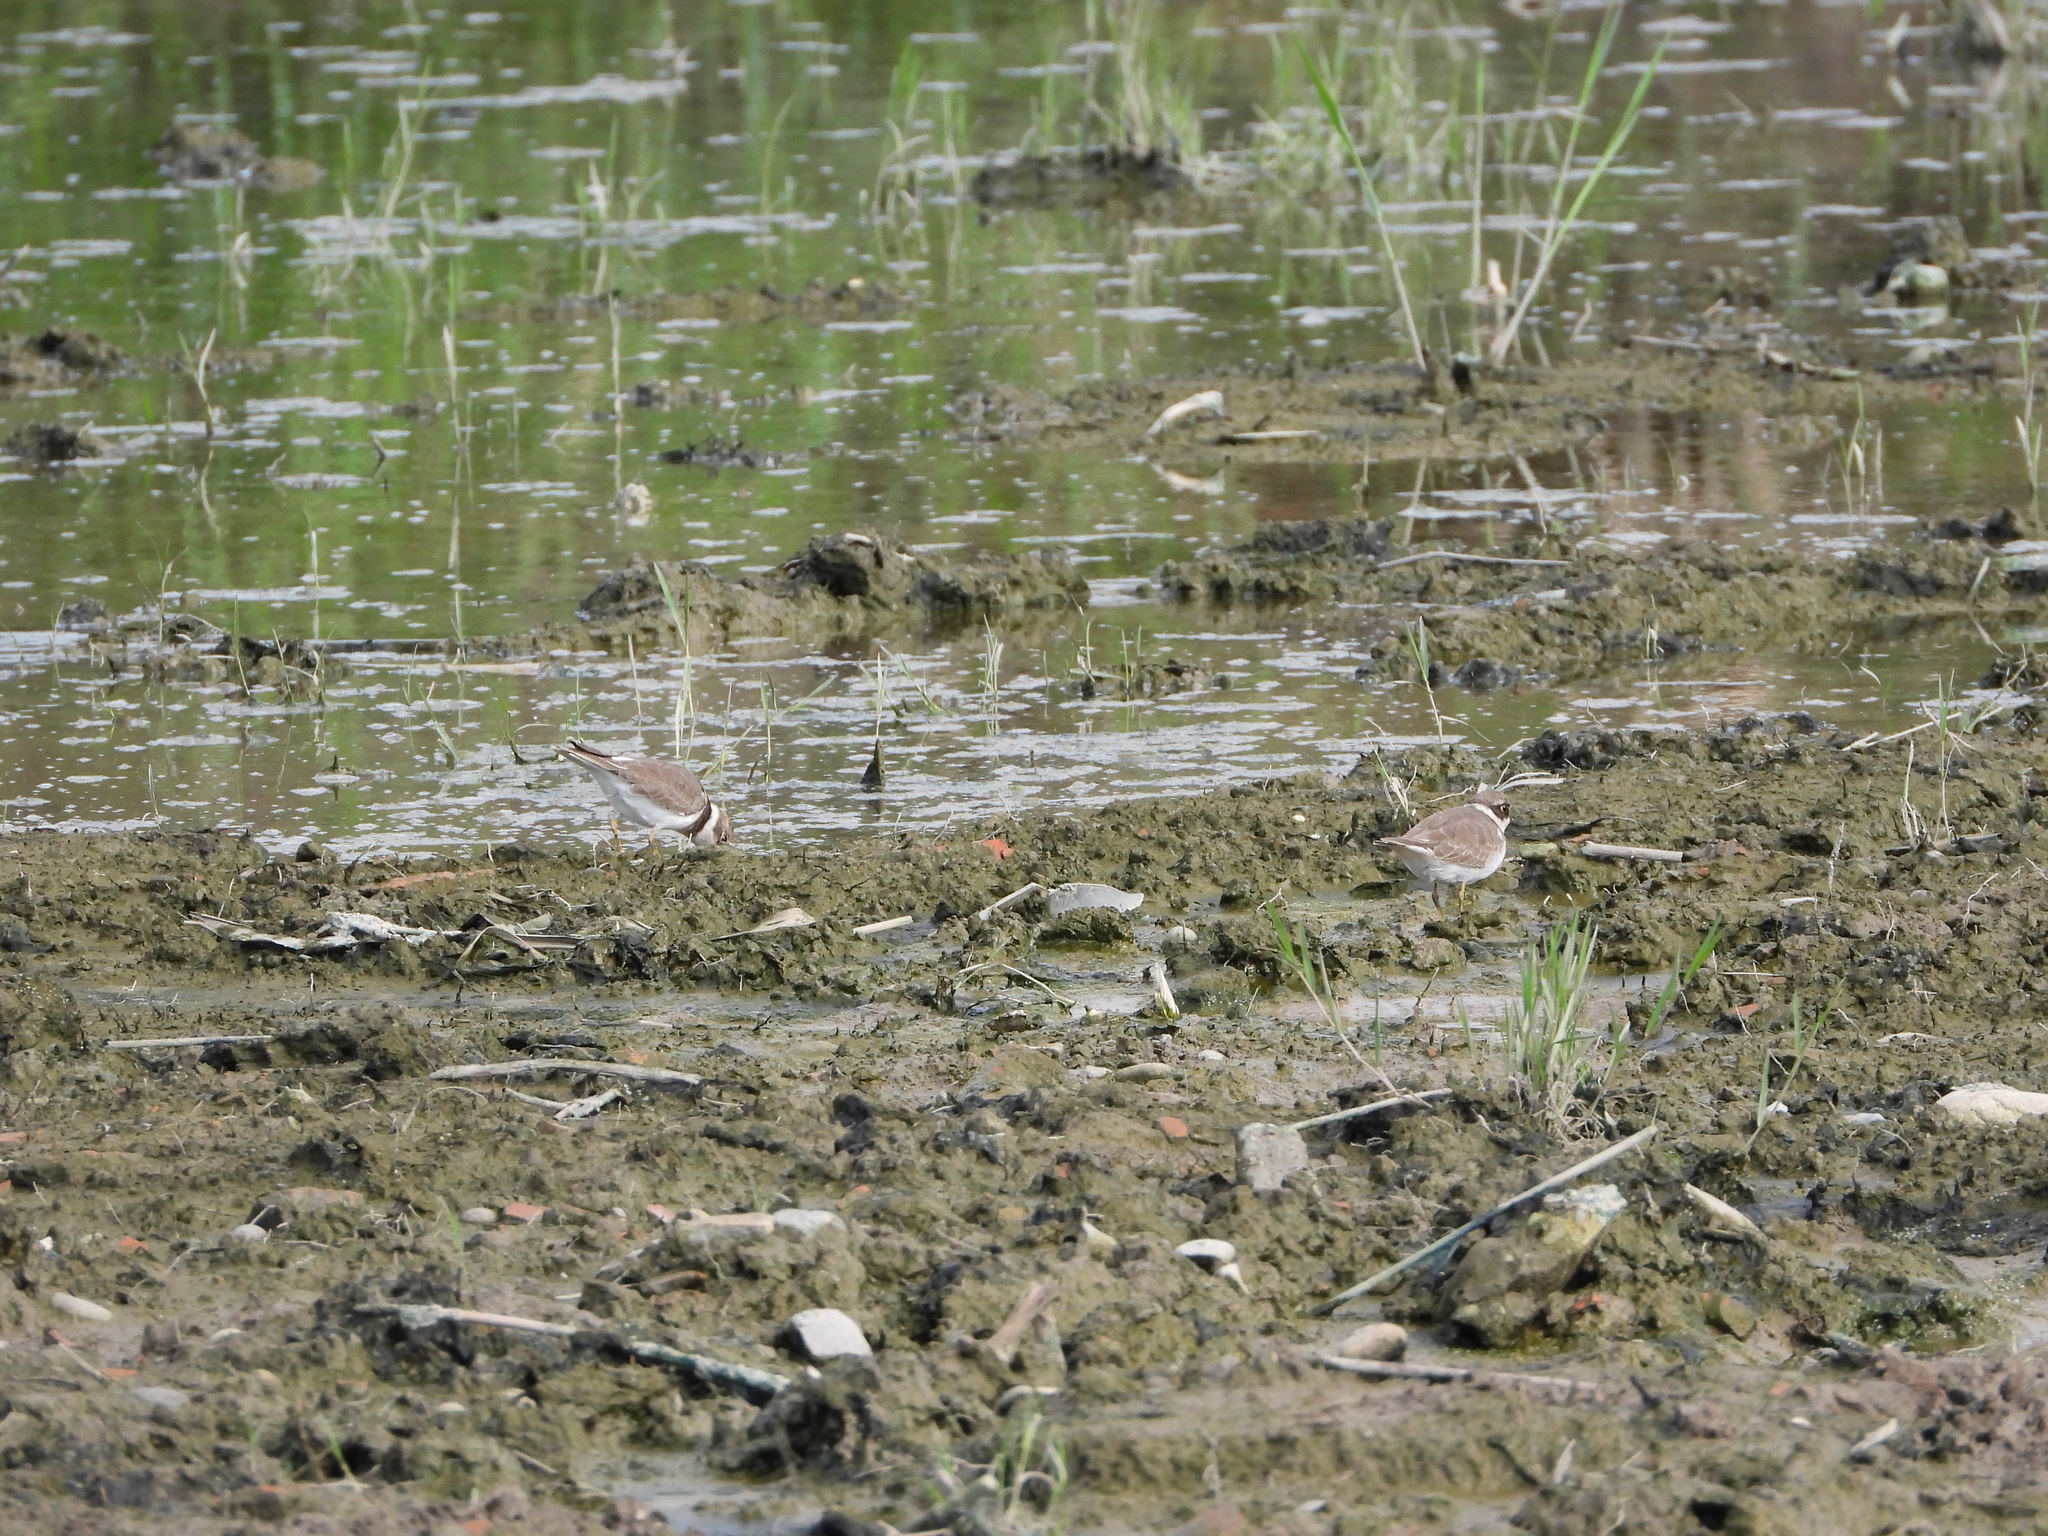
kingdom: Animalia
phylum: Chordata
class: Aves
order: Charadriiformes
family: Charadriidae
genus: Charadrius
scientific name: Charadrius dubius
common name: Little ringed plover
